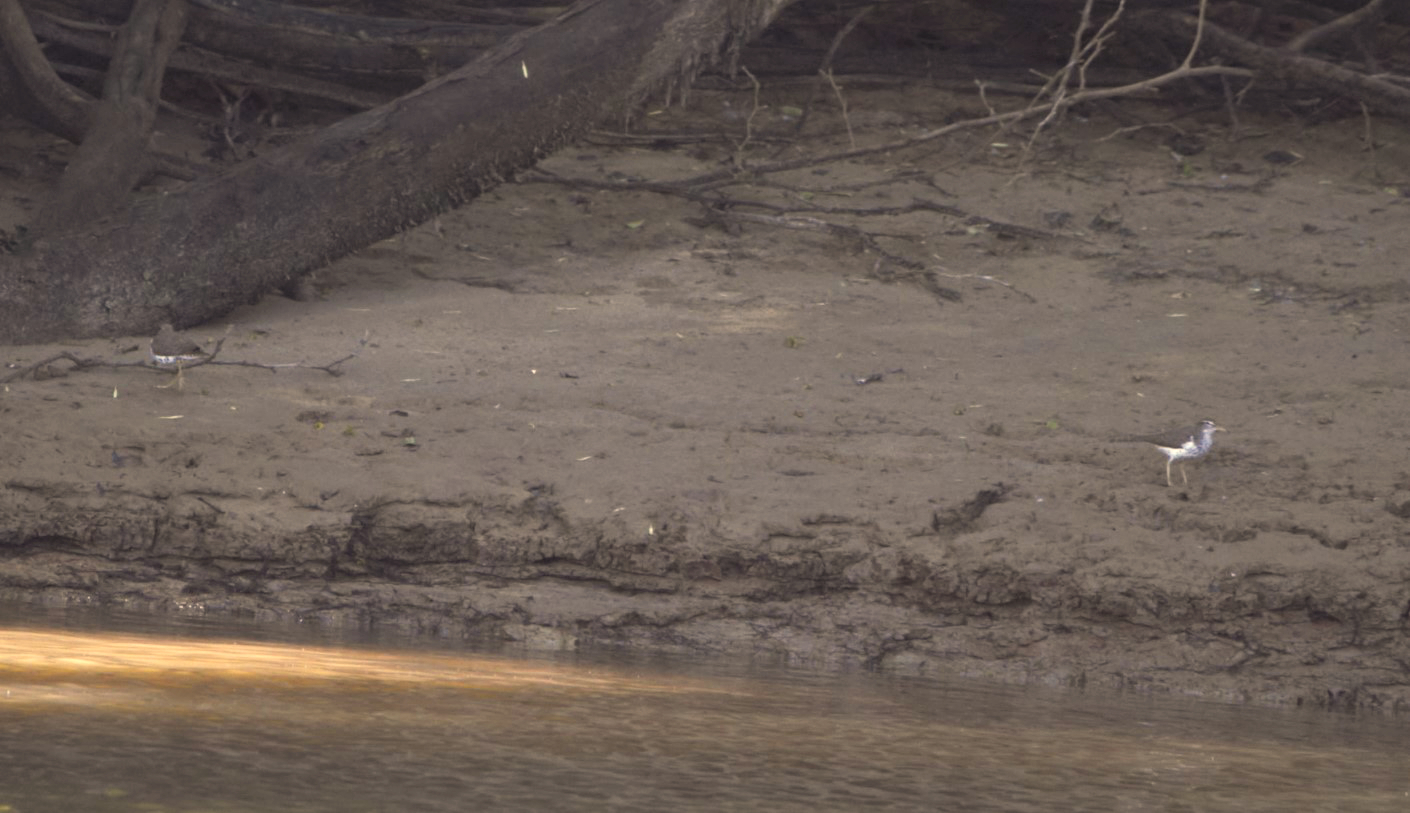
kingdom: Animalia
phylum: Chordata
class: Aves
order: Charadriiformes
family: Scolopacidae
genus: Actitis
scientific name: Actitis macularius
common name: Spotted sandpiper
